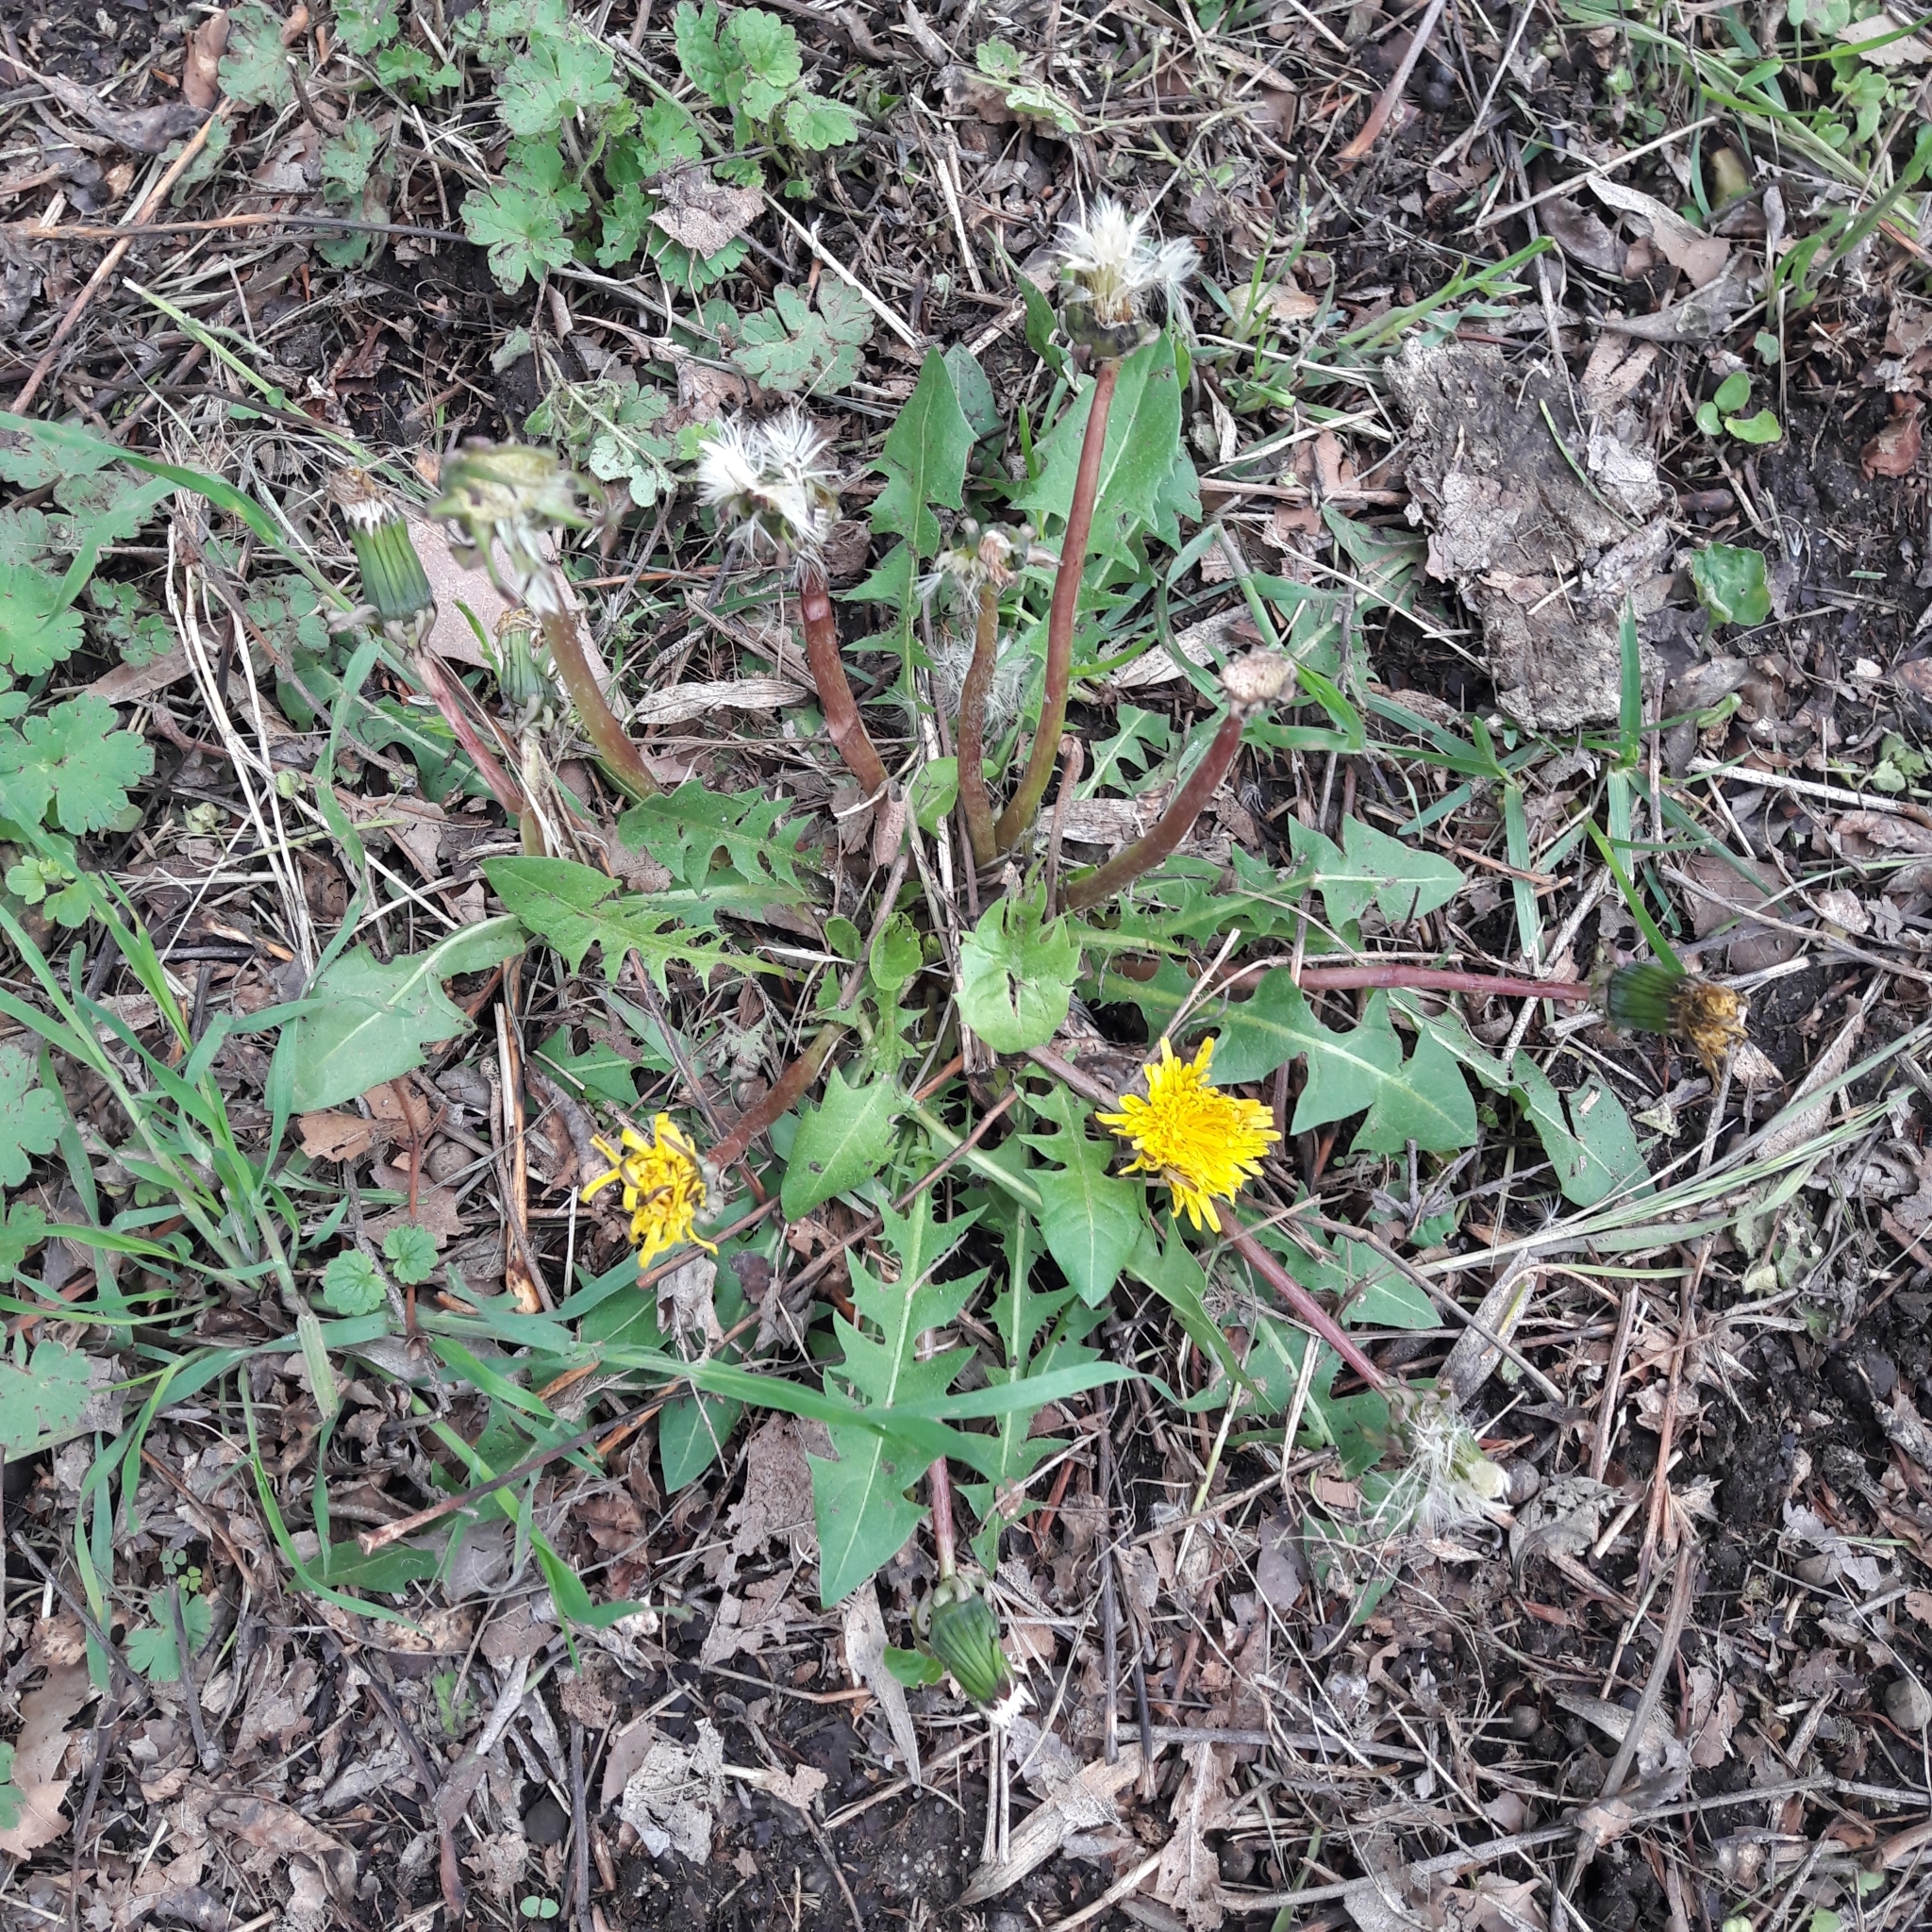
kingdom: Plantae
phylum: Tracheophyta
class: Magnoliopsida
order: Asterales
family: Asteraceae
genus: Taraxacum
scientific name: Taraxacum officinale
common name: Common dandelion
